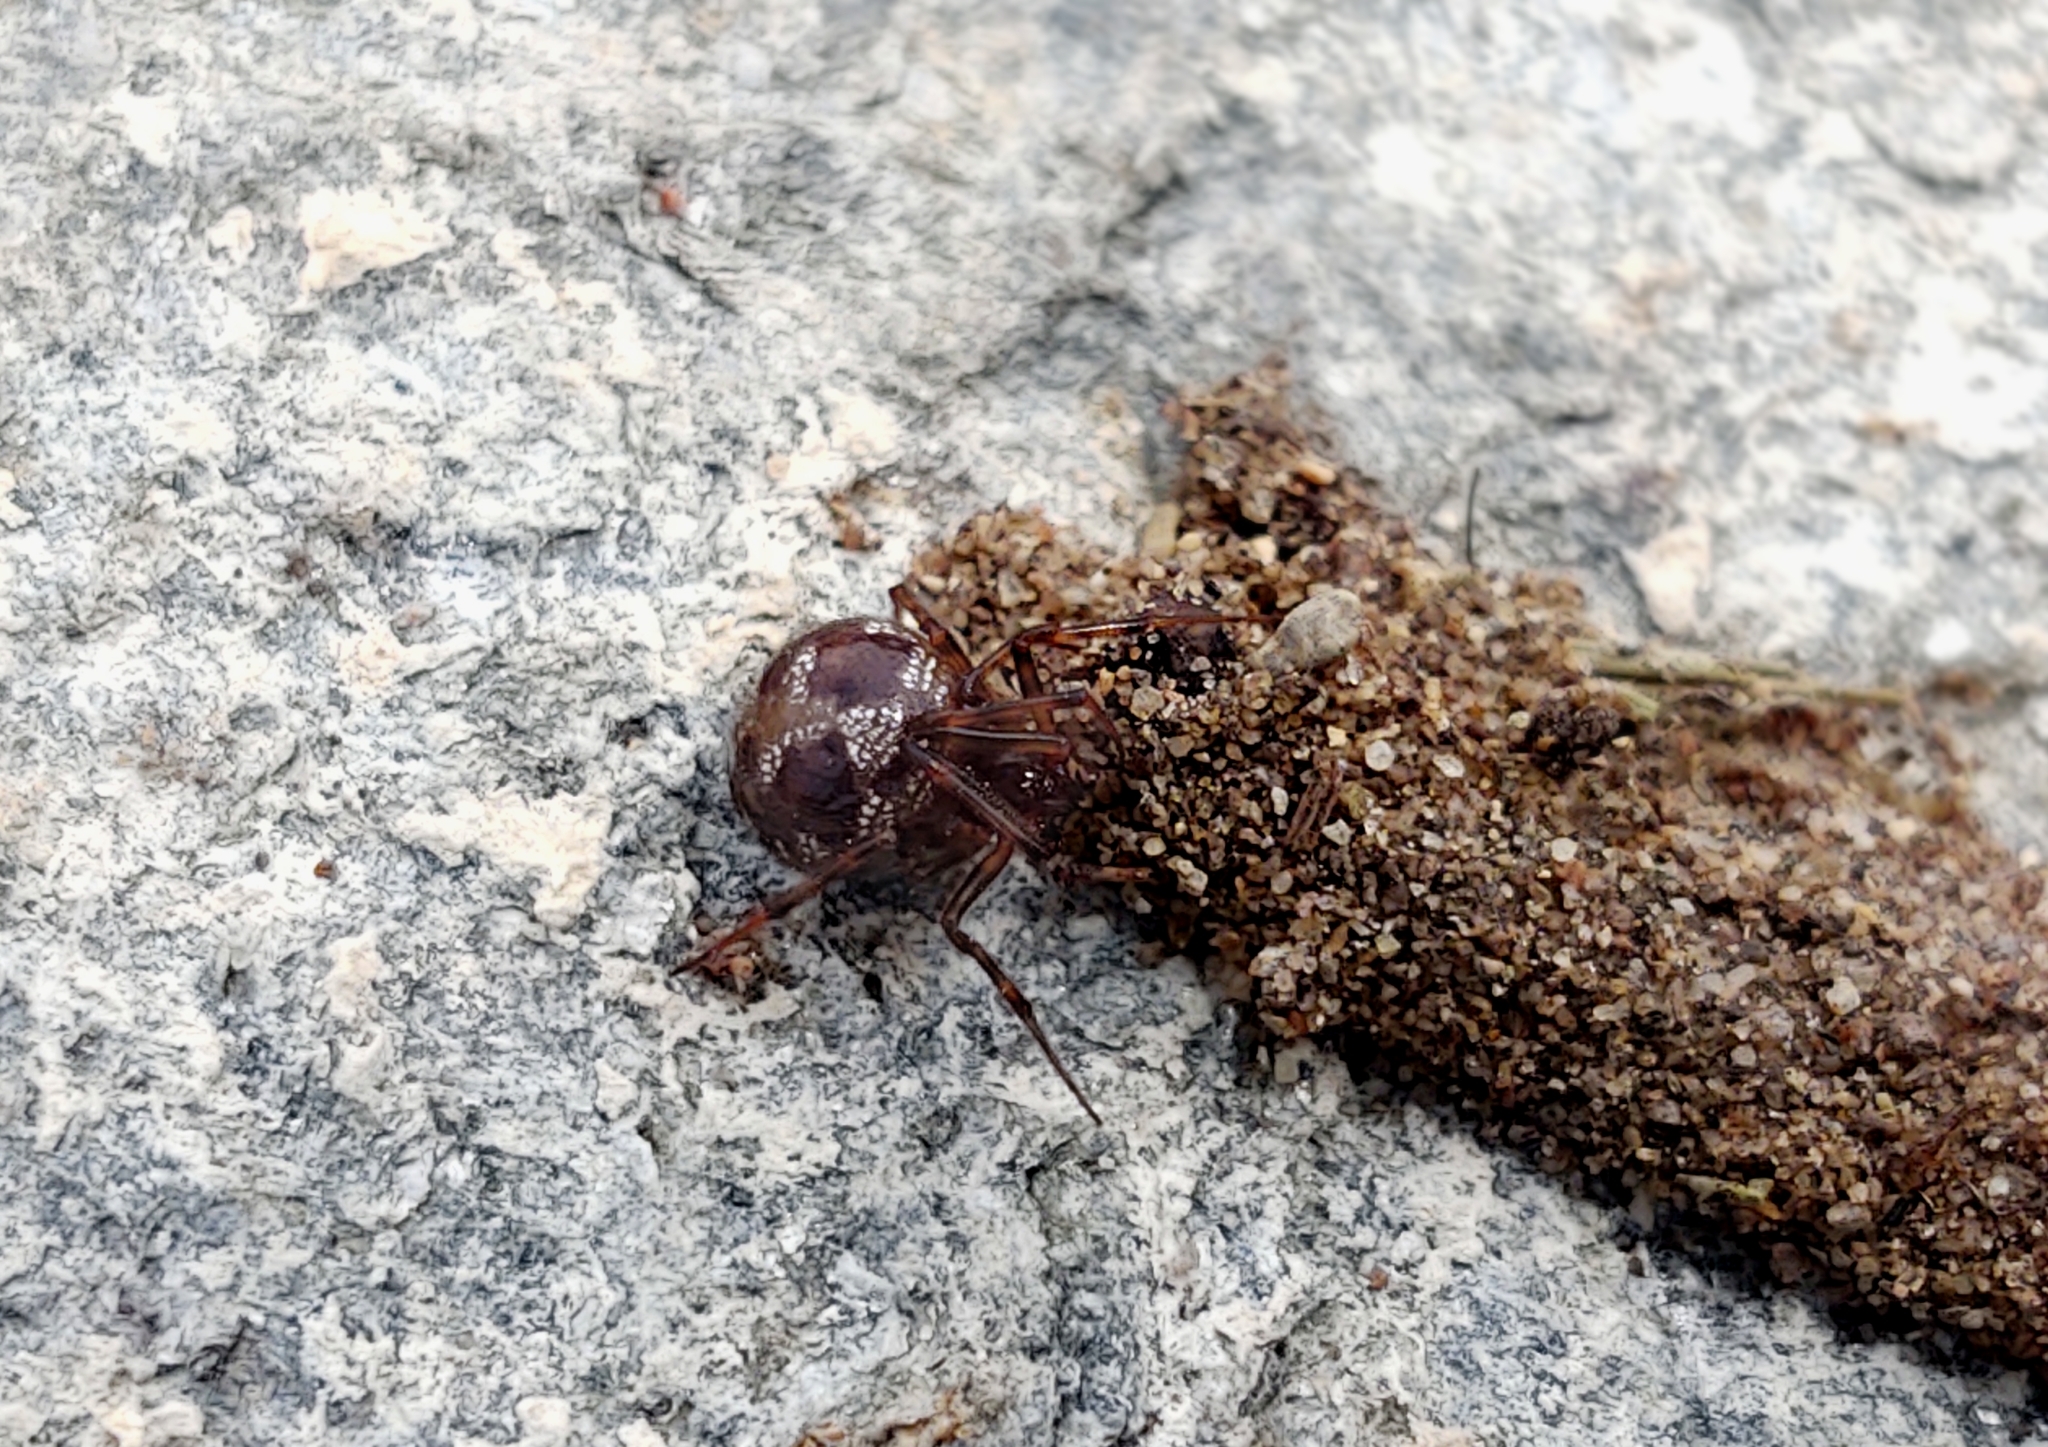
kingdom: Animalia
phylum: Arthropoda
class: Arachnida
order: Araneae
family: Theridiidae
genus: Steatoda
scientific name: Steatoda triangulosa
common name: Triangulate bud spider
